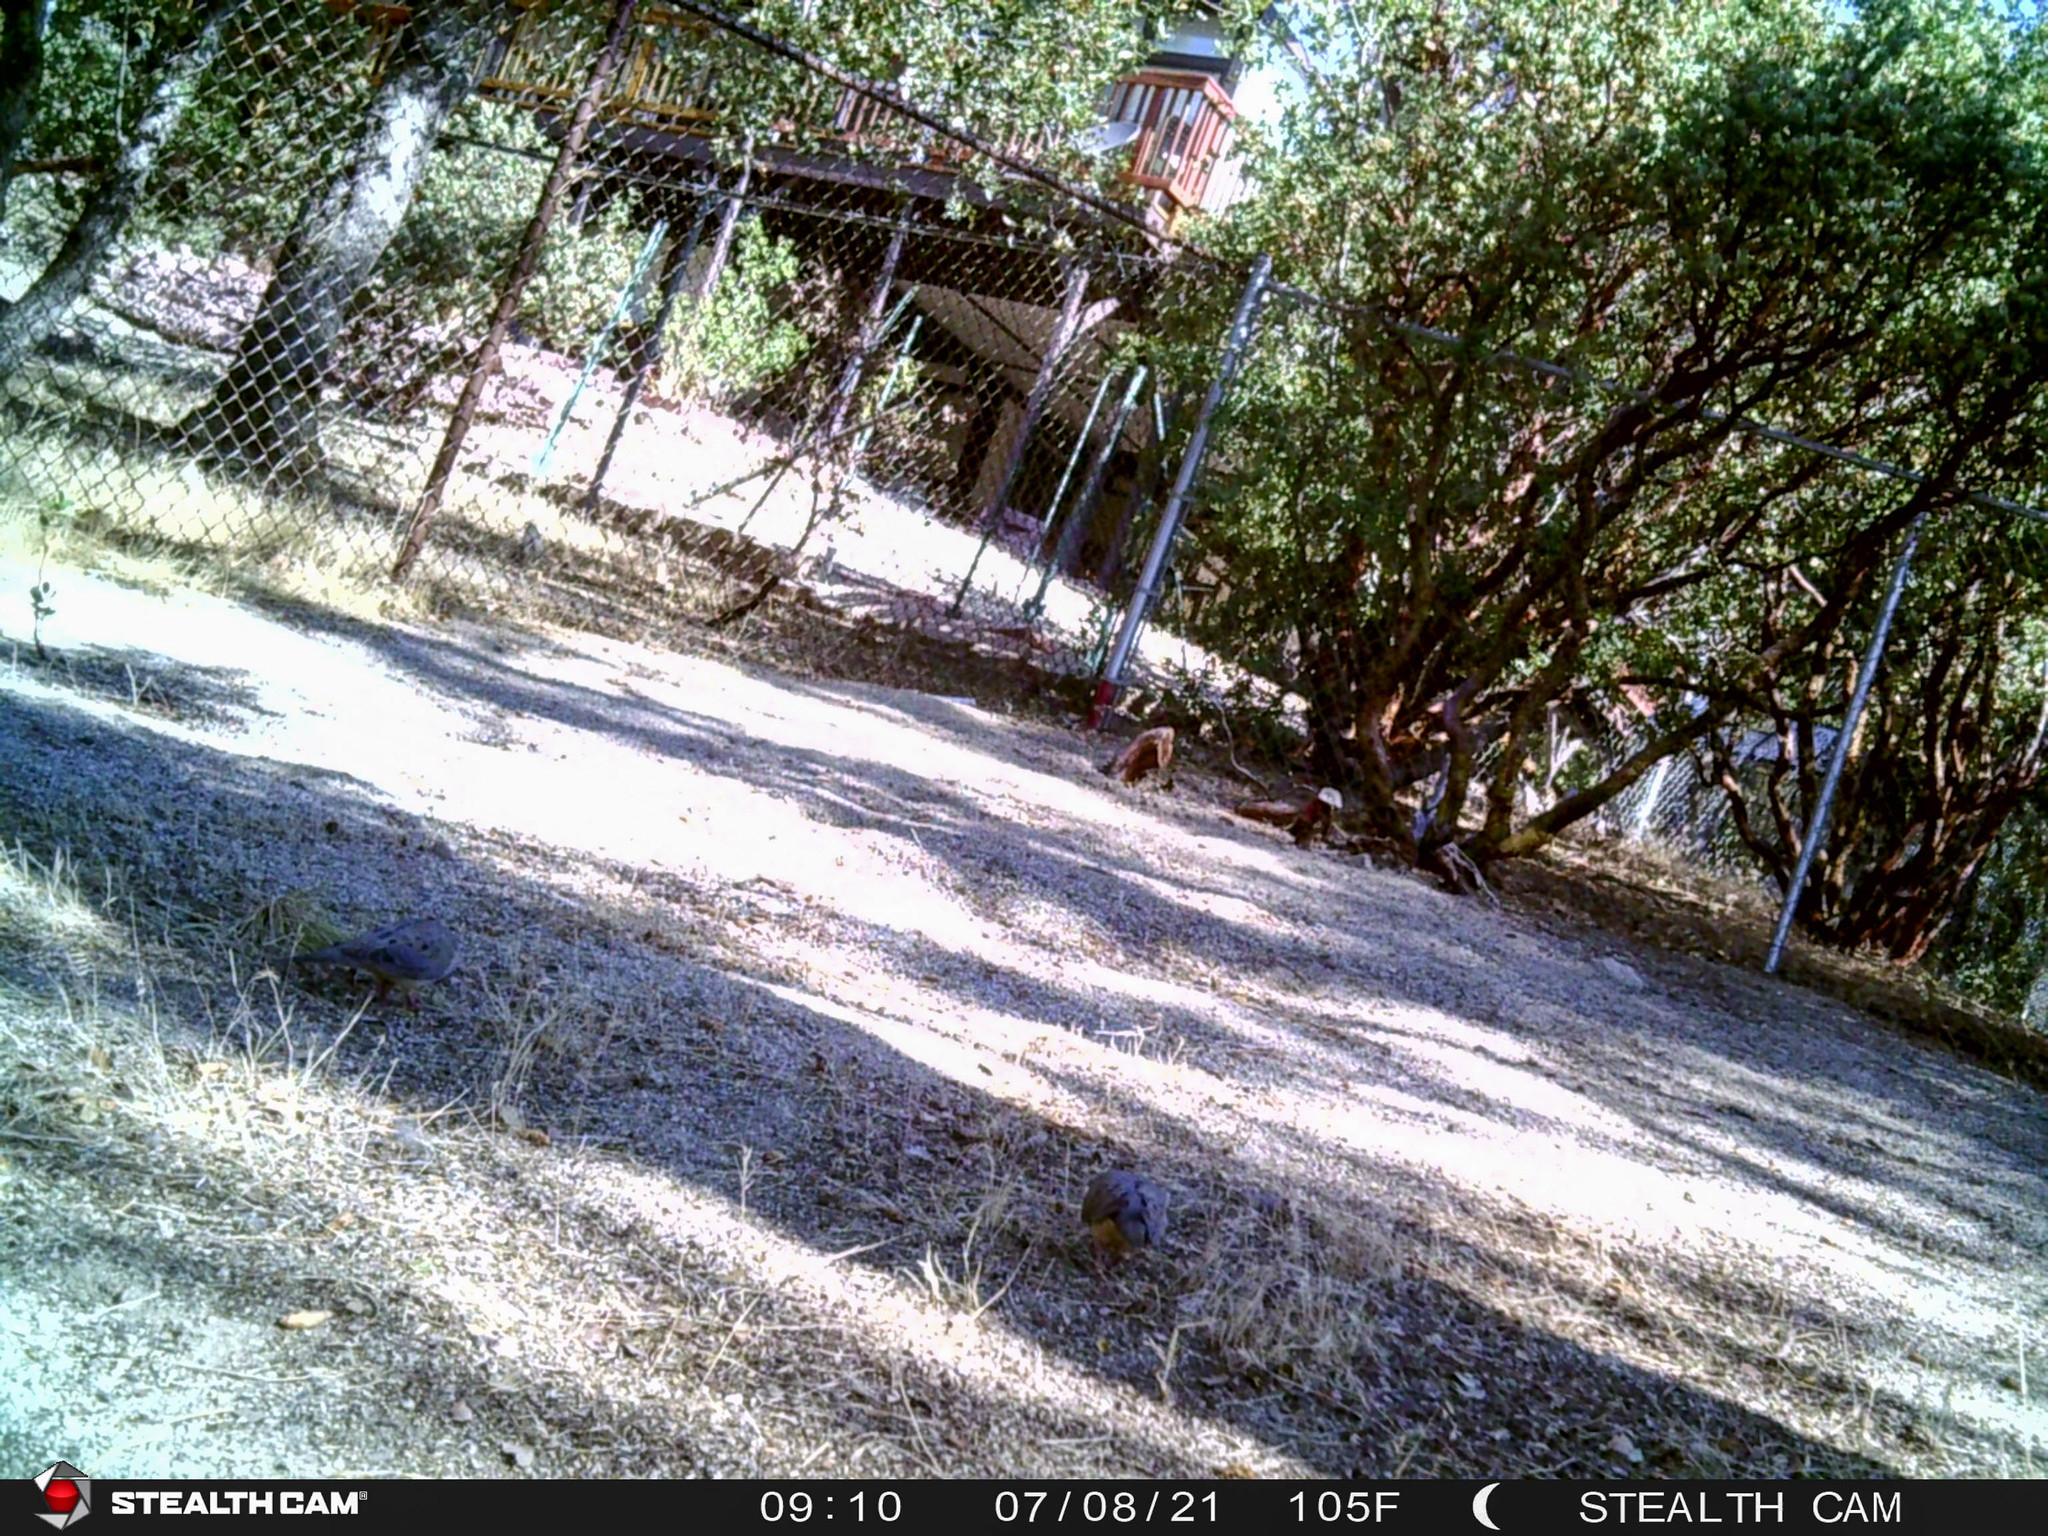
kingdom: Animalia
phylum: Chordata
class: Aves
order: Columbiformes
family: Columbidae
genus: Zenaida
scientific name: Zenaida macroura
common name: Mourning dove
